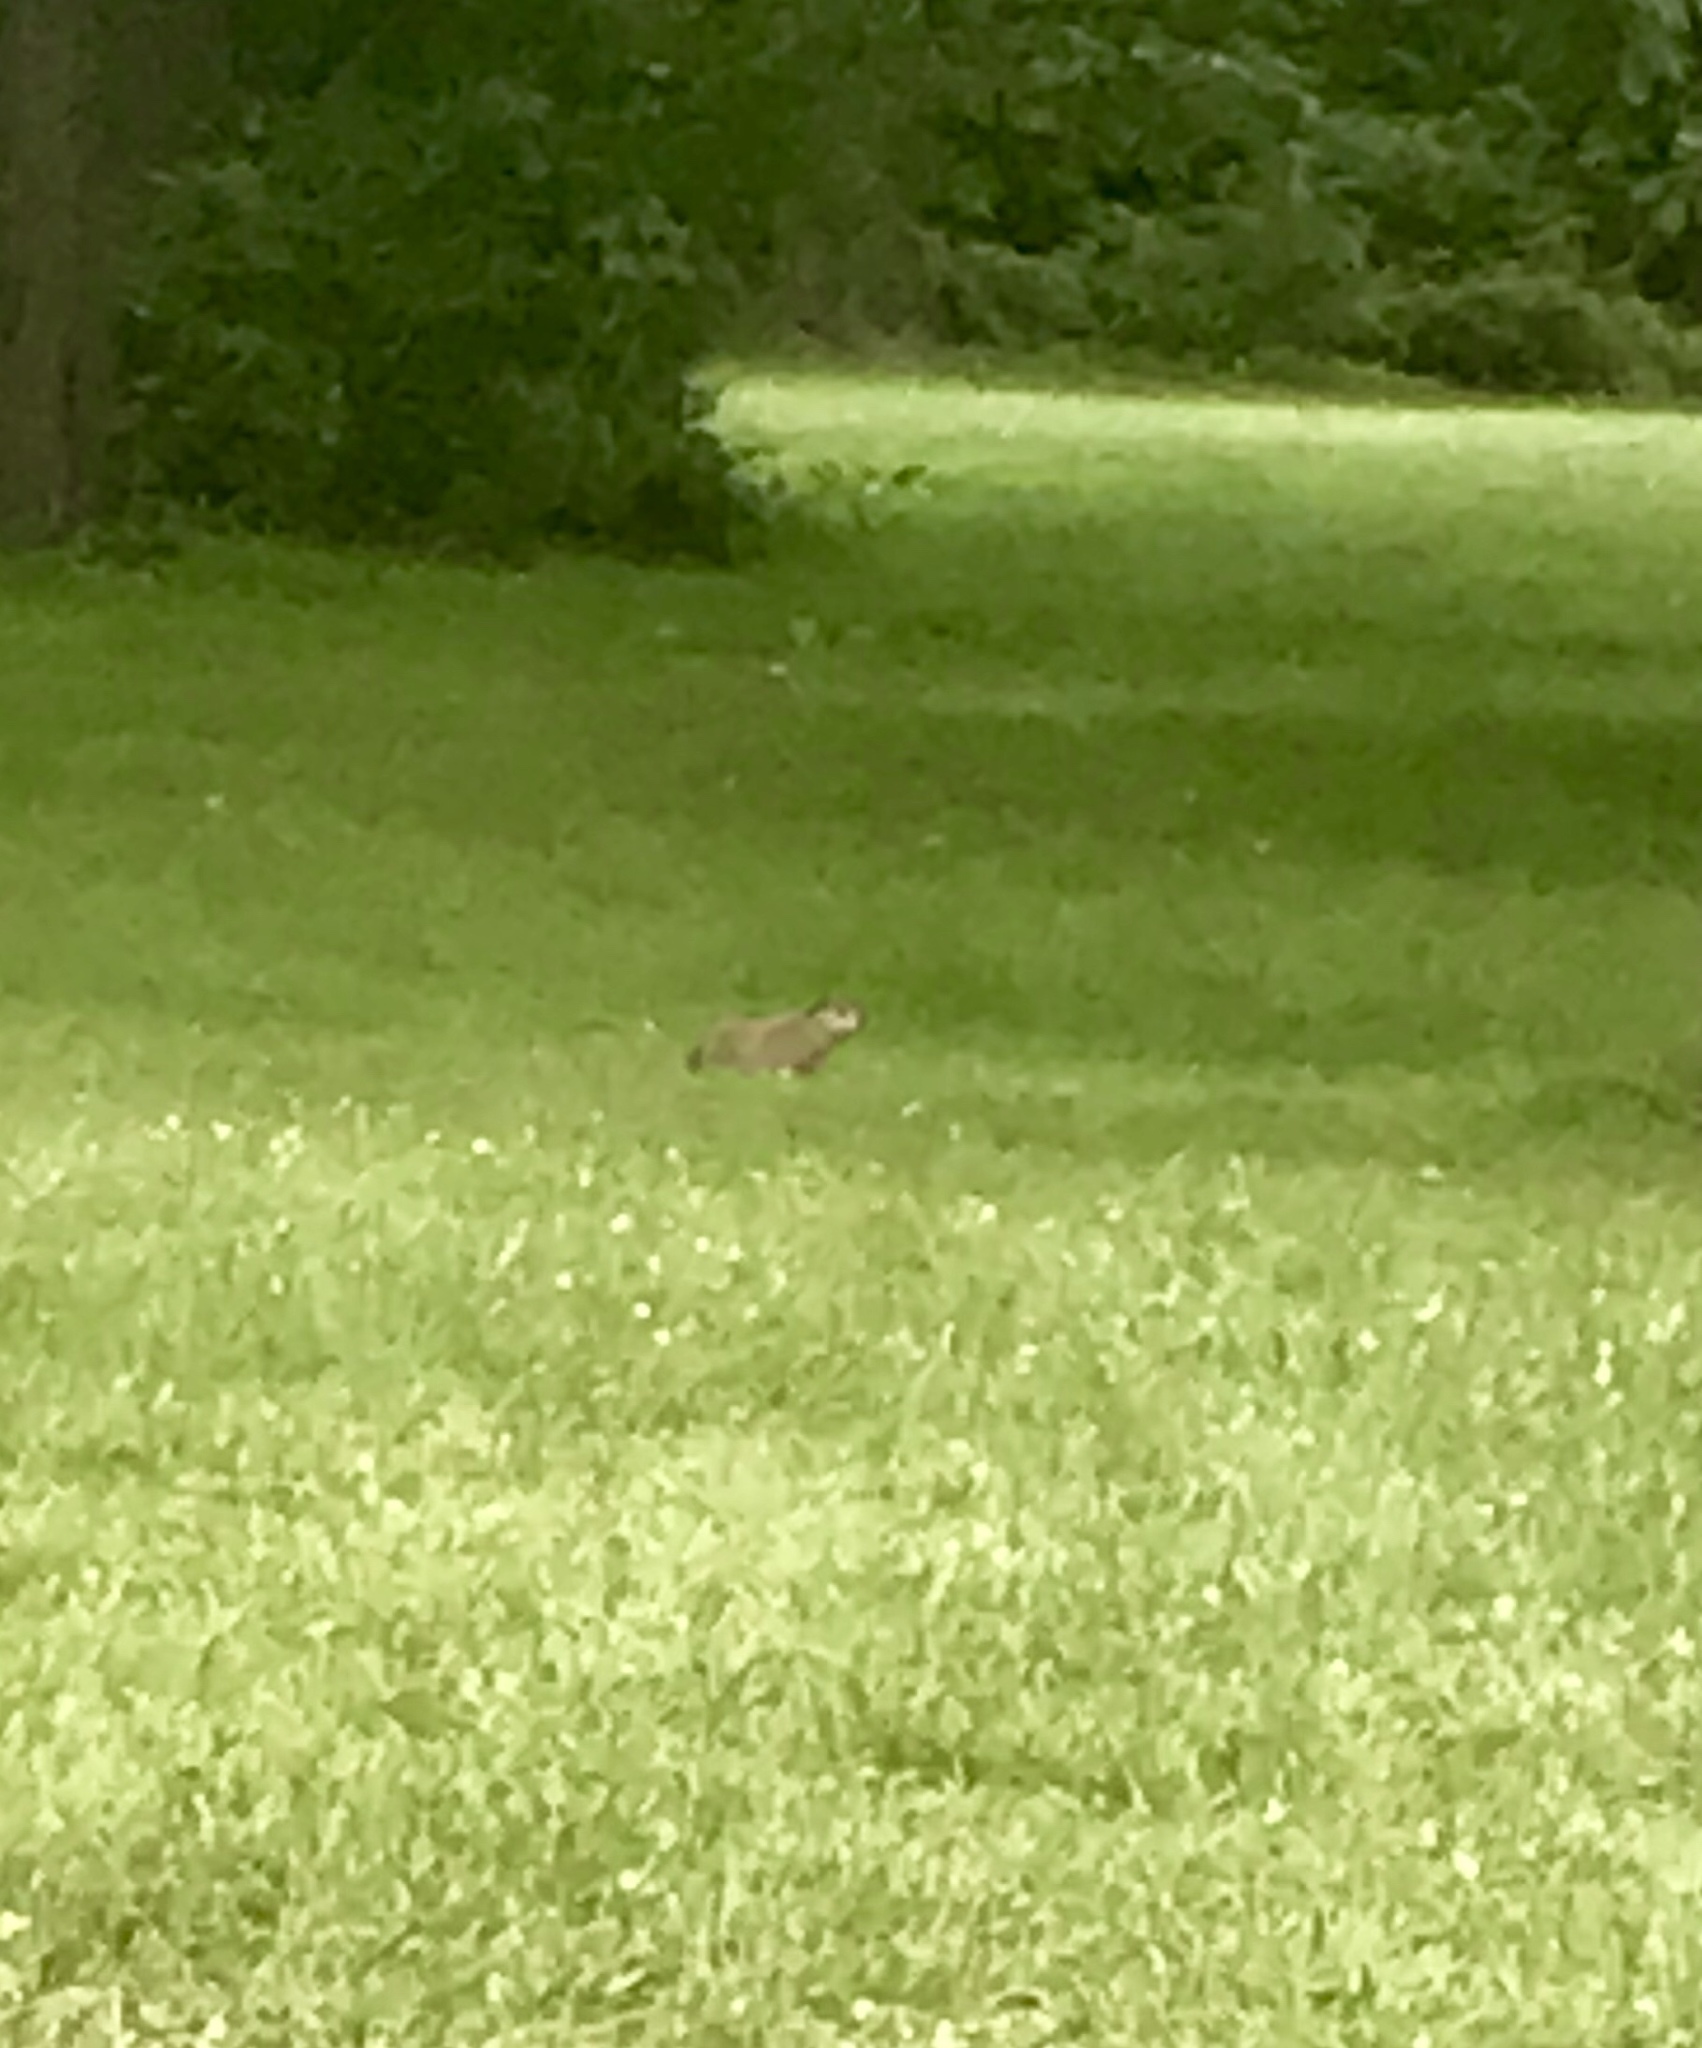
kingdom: Animalia
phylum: Chordata
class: Mammalia
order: Rodentia
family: Sciuridae
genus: Marmota
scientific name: Marmota monax
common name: Groundhog
